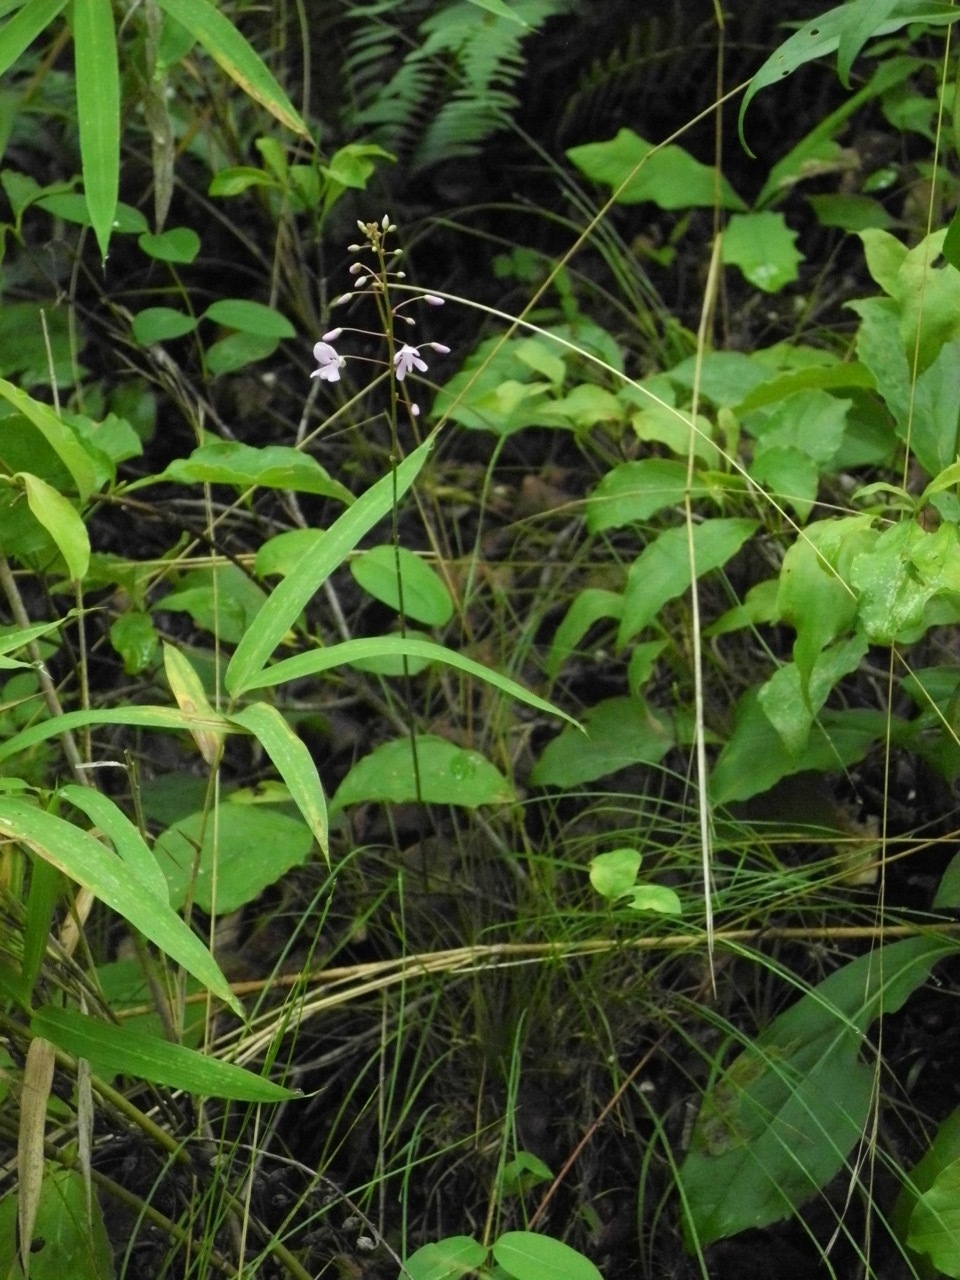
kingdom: Plantae
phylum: Tracheophyta
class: Magnoliopsida
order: Fabales
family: Fabaceae
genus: Hylodesmum
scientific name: Hylodesmum nudiflorum
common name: Bare-stemmed tick-trefoil
